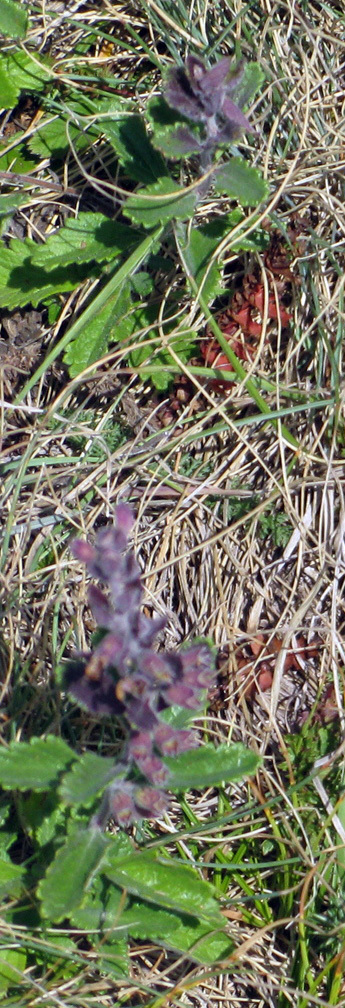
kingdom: Plantae
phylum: Tracheophyta
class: Magnoliopsida
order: Lamiales
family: Lamiaceae
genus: Teucrium
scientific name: Teucrium chamaedrys
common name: Wall germander
